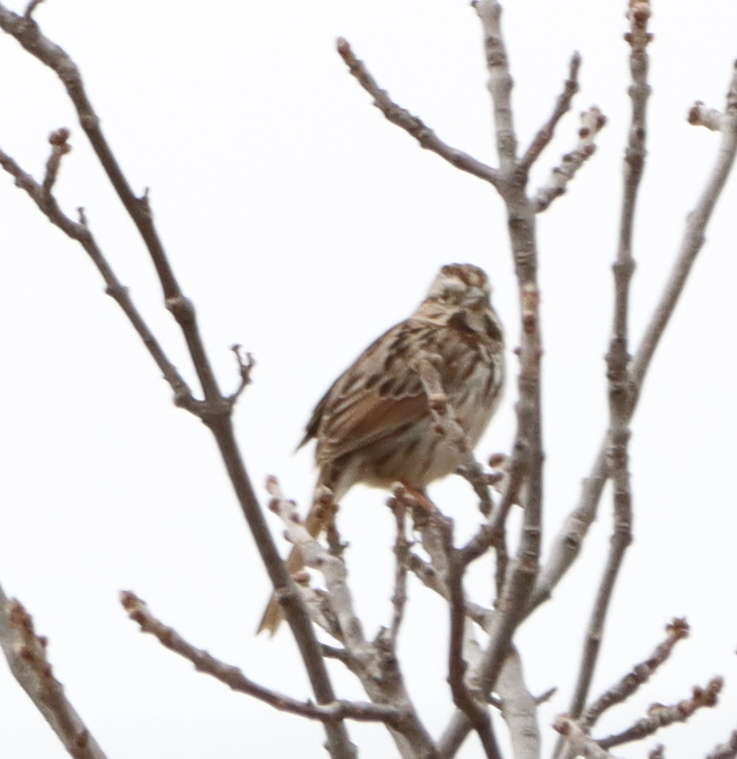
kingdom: Animalia
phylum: Chordata
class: Aves
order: Passeriformes
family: Passerellidae
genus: Melospiza
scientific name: Melospiza melodia
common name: Song sparrow
